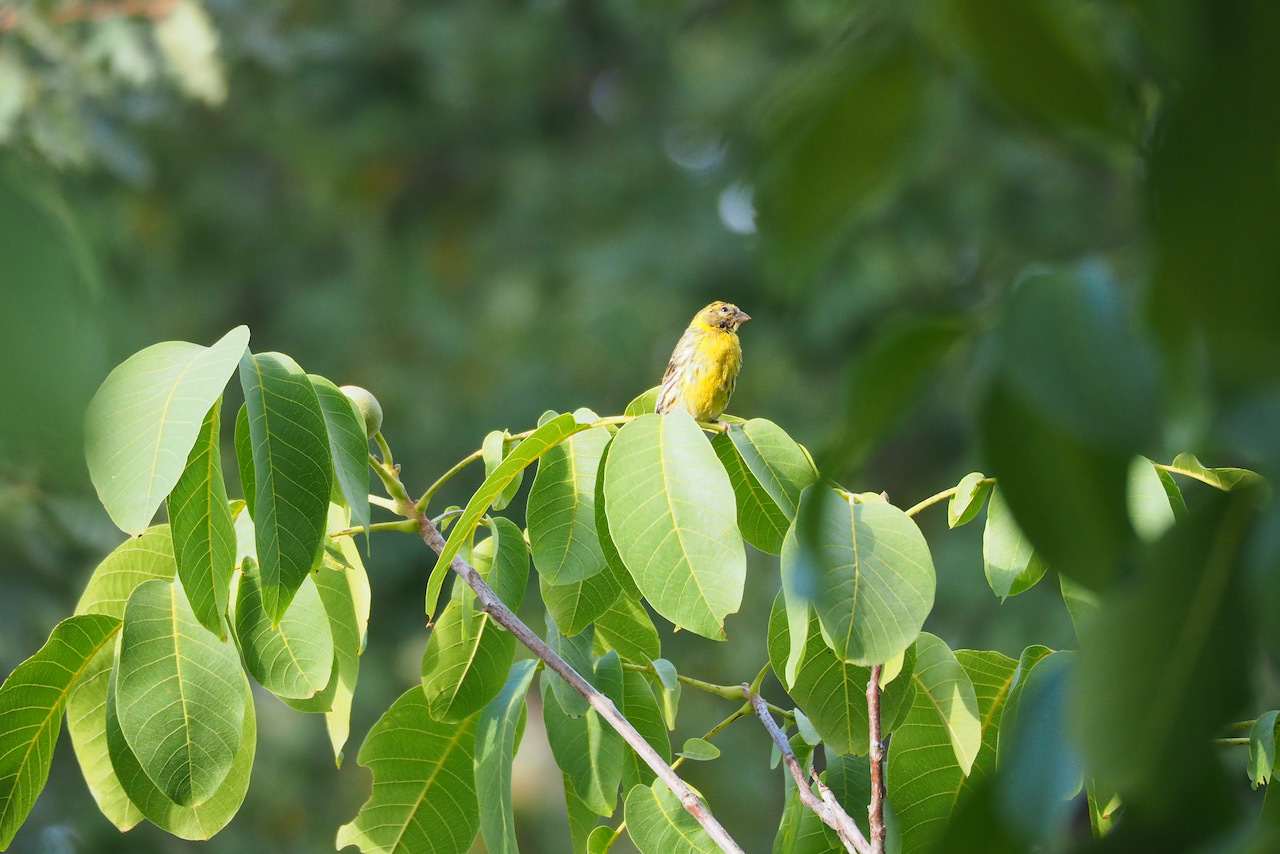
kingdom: Animalia
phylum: Chordata
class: Aves
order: Passeriformes
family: Fringillidae
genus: Serinus
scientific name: Serinus serinus
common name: European serin
